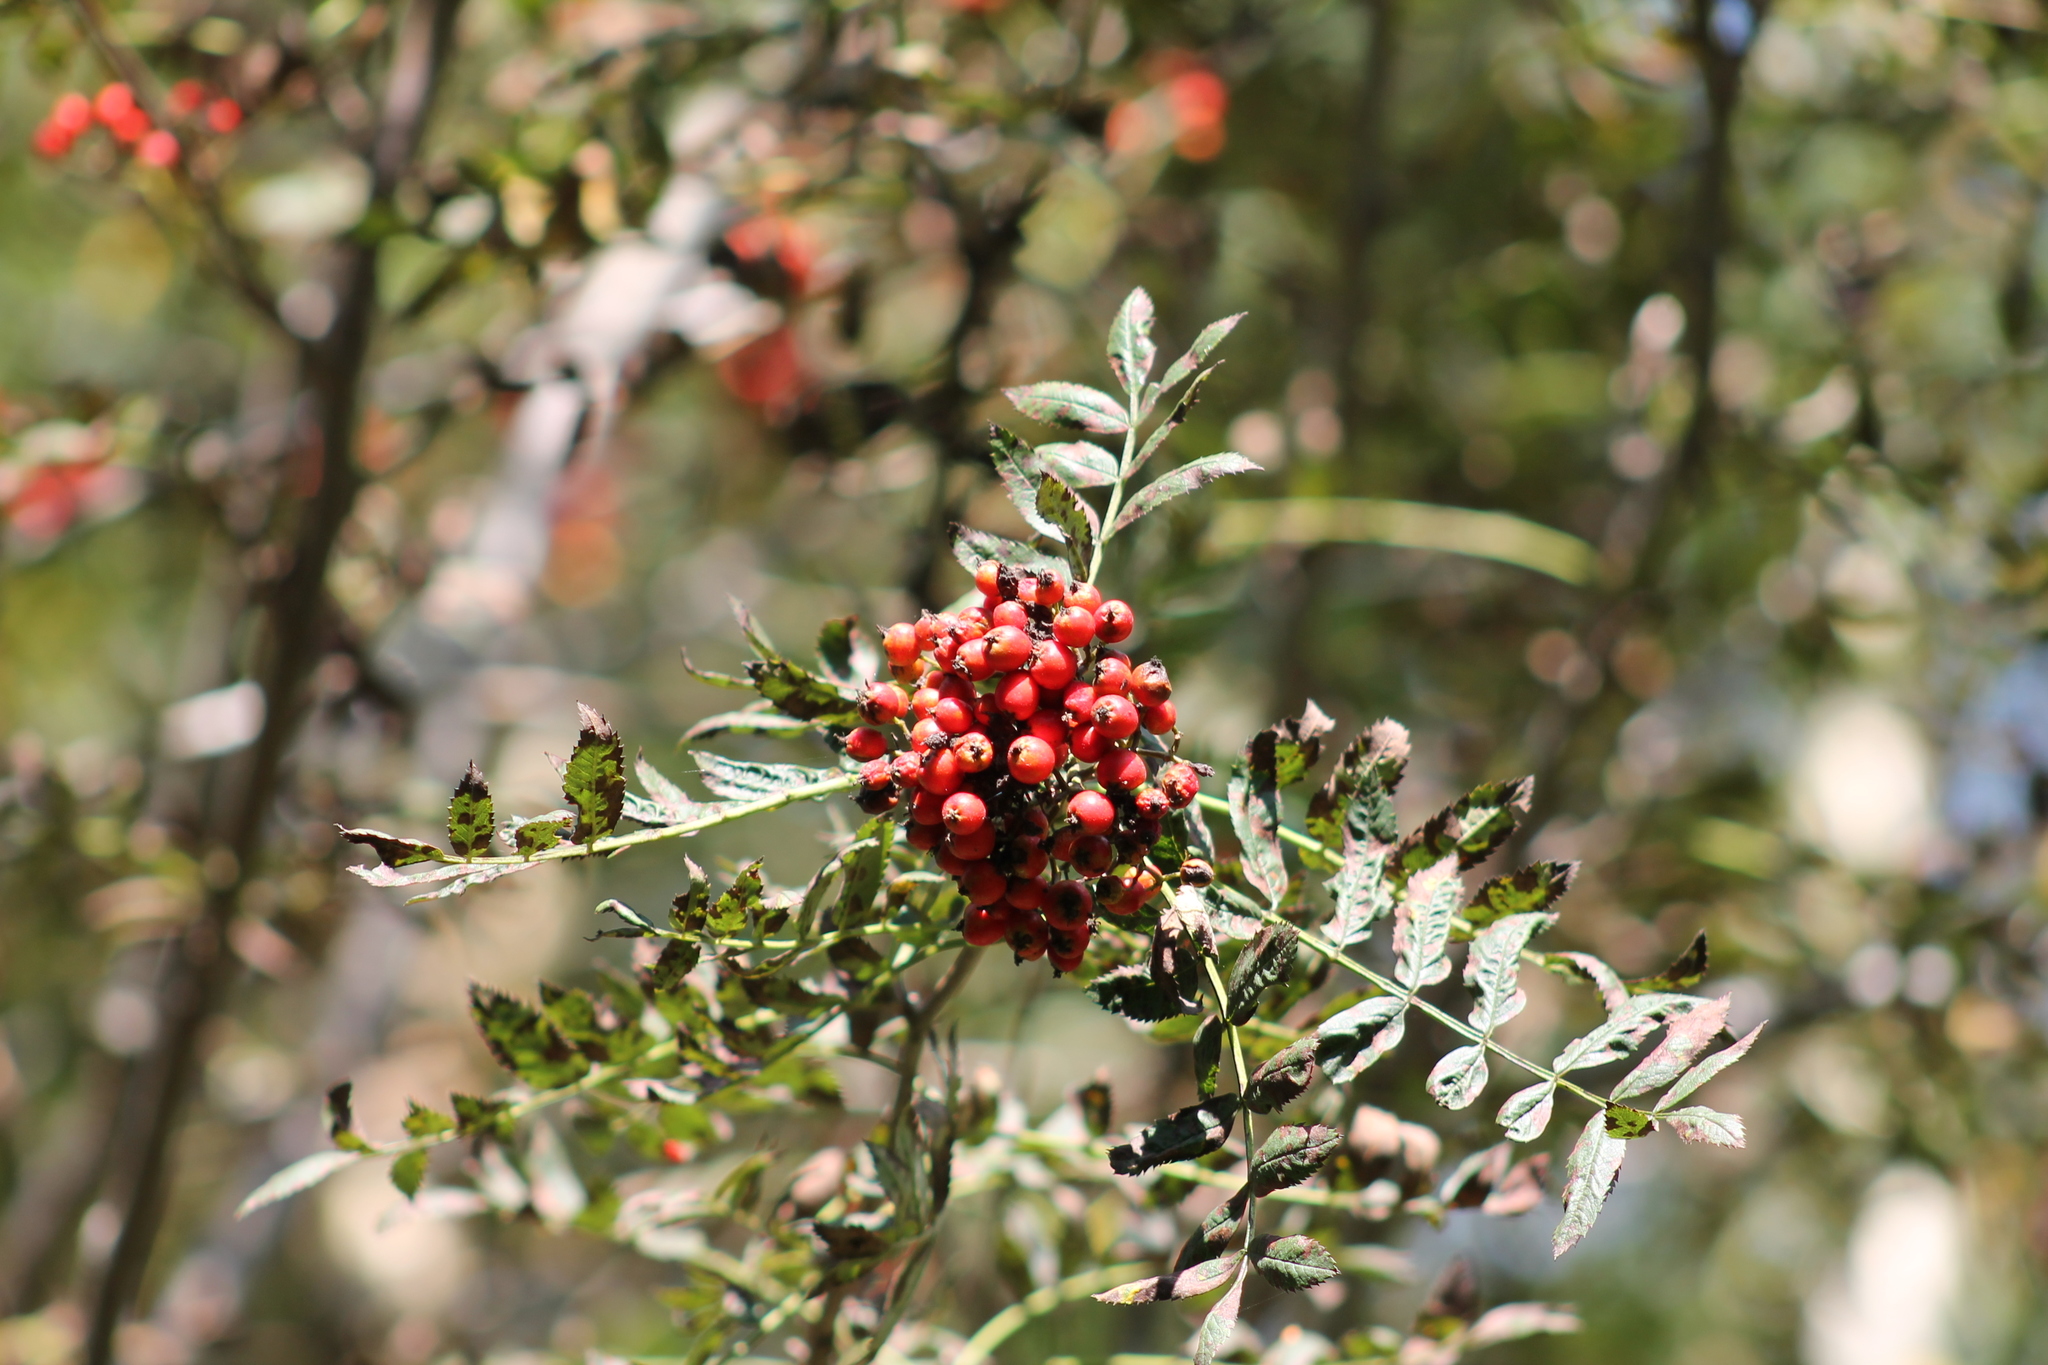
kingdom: Plantae
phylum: Tracheophyta
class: Magnoliopsida
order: Rosales
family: Rosaceae
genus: Sorbus
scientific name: Sorbus aucuparia
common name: Rowan
